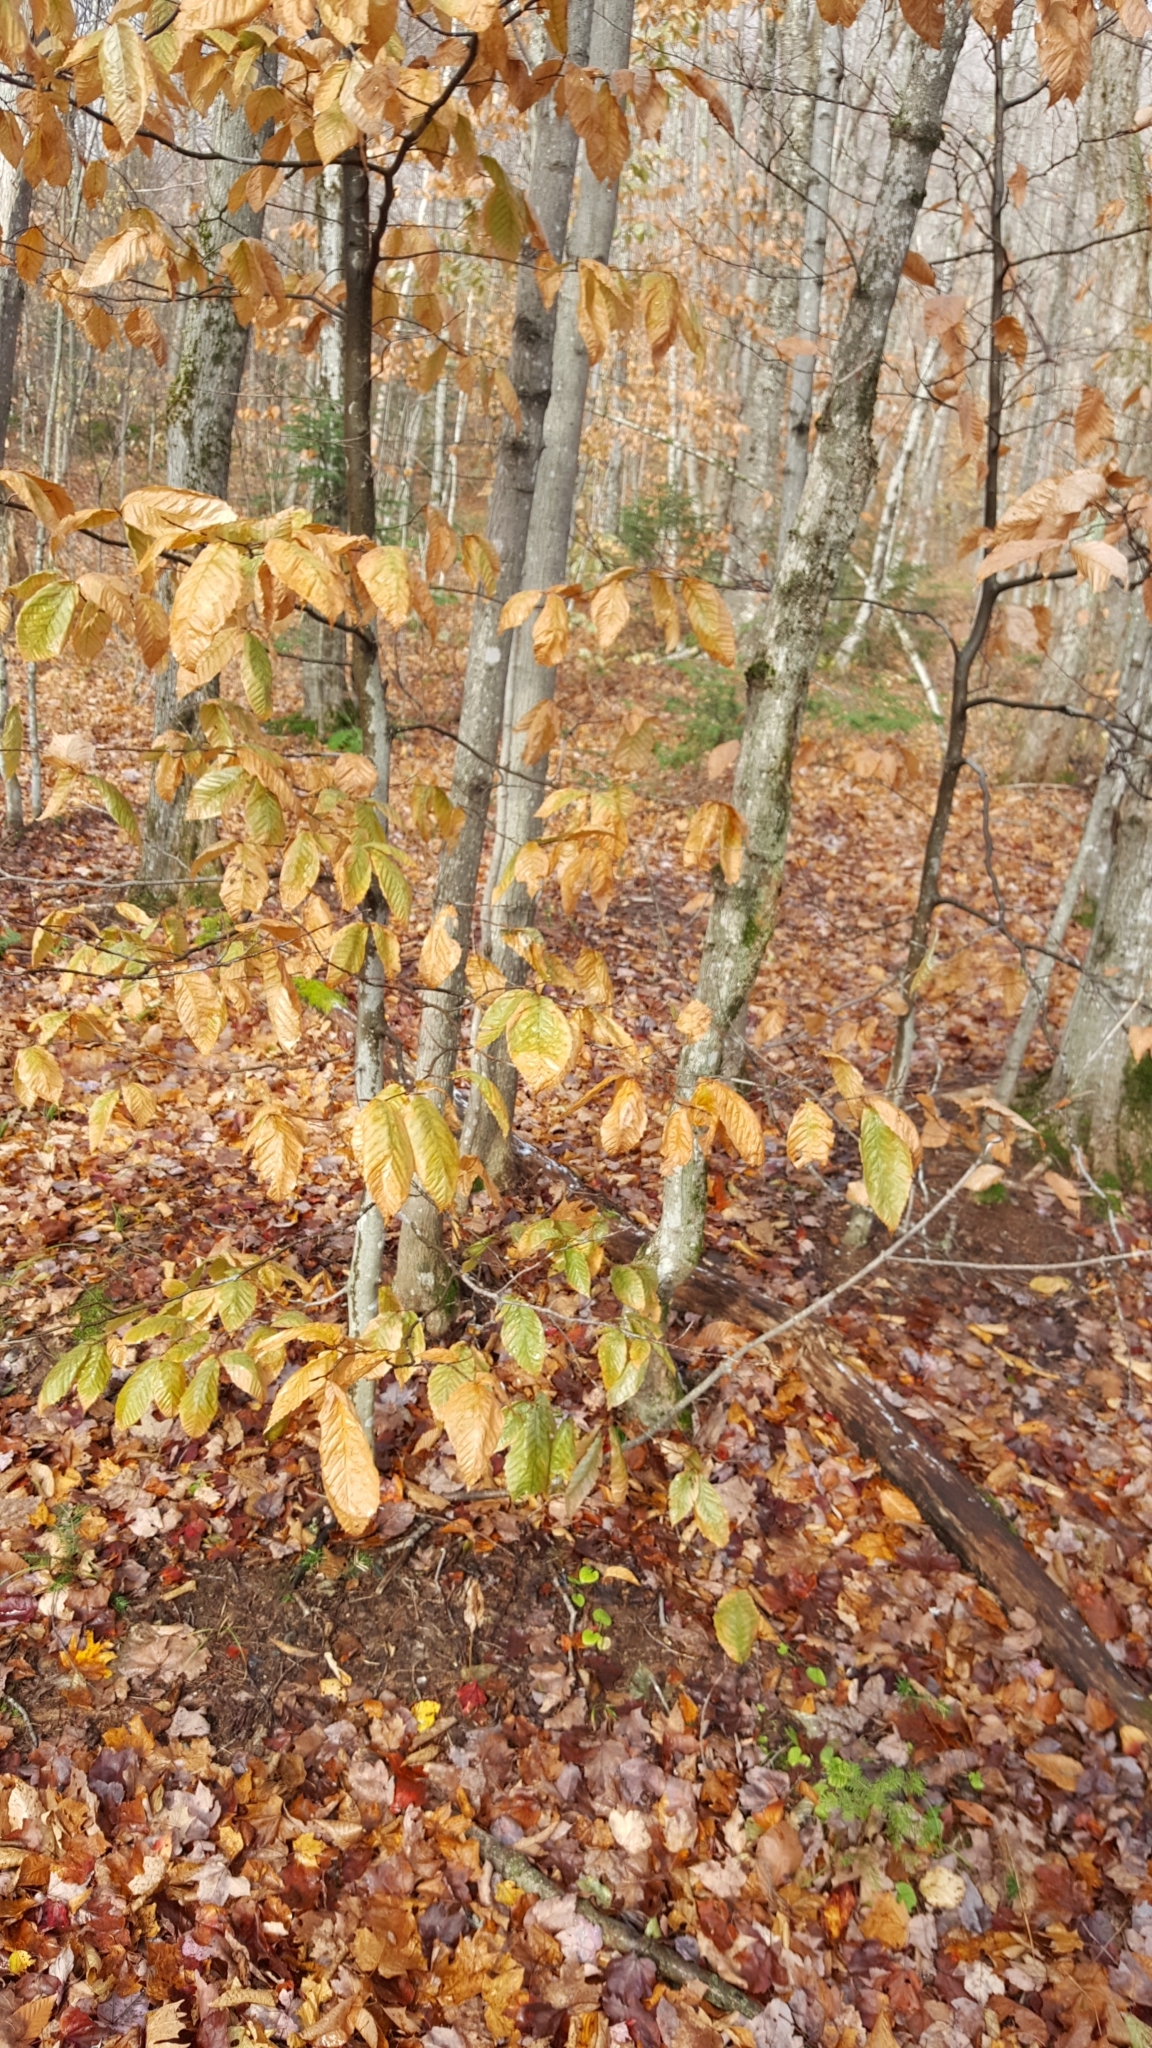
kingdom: Plantae
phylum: Tracheophyta
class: Magnoliopsida
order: Fagales
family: Fagaceae
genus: Fagus
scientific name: Fagus grandifolia
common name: American beech
